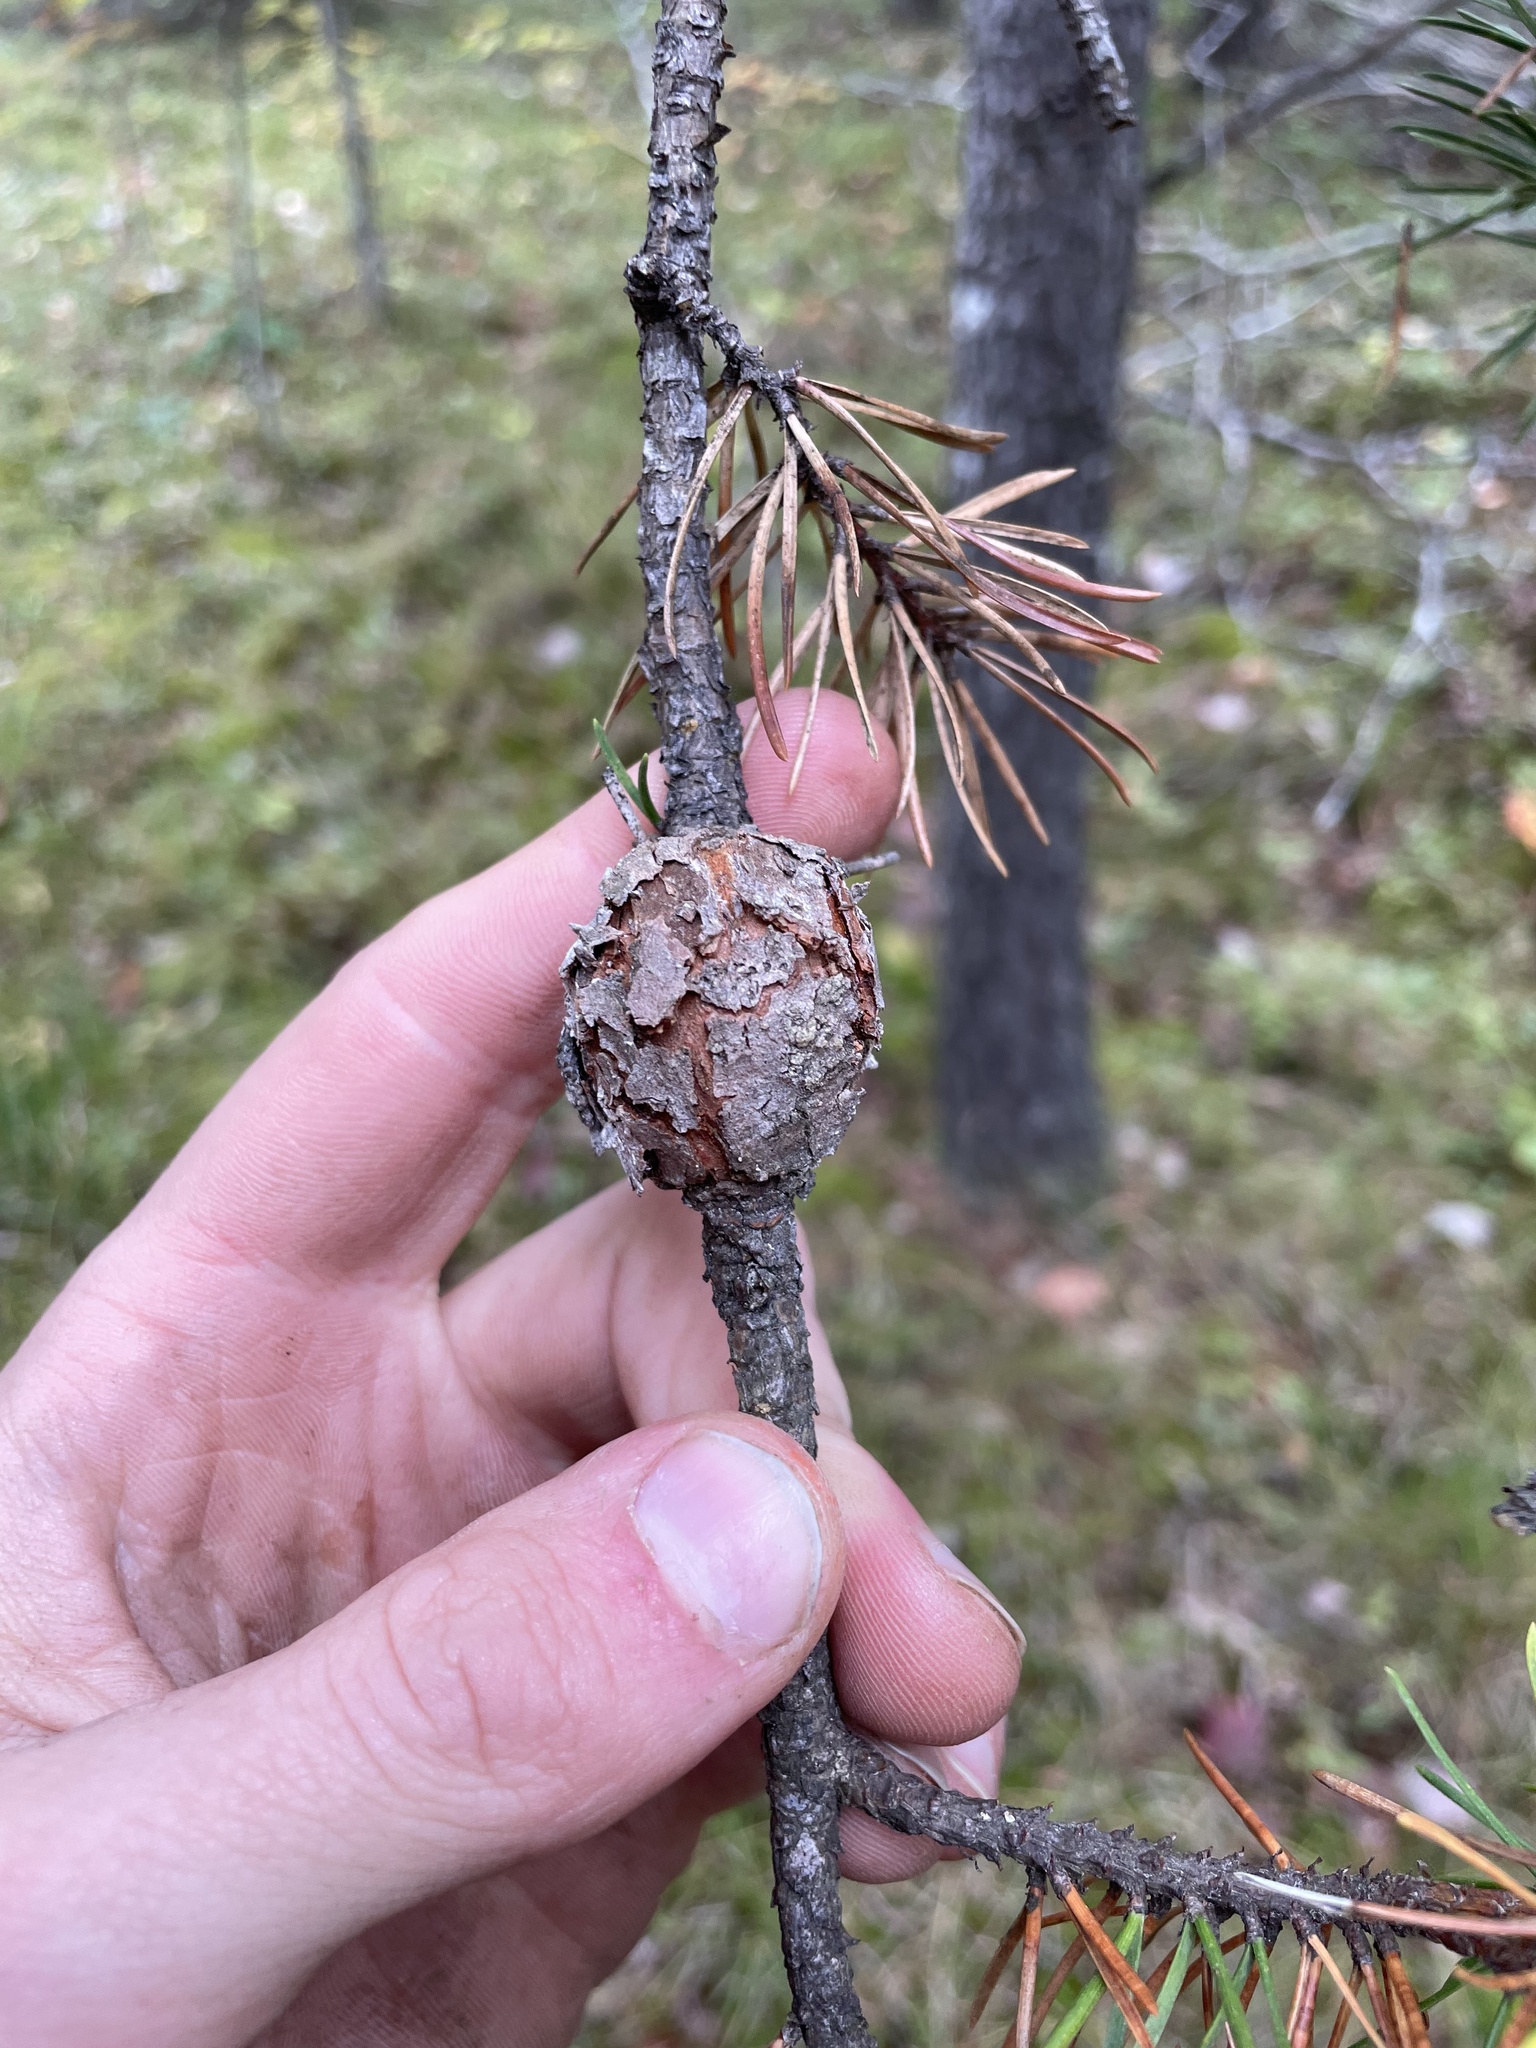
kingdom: Fungi
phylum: Basidiomycota
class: Pucciniomycetes
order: Pucciniales
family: Cronartiaceae
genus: Cronartium
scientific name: Cronartium quercuum
